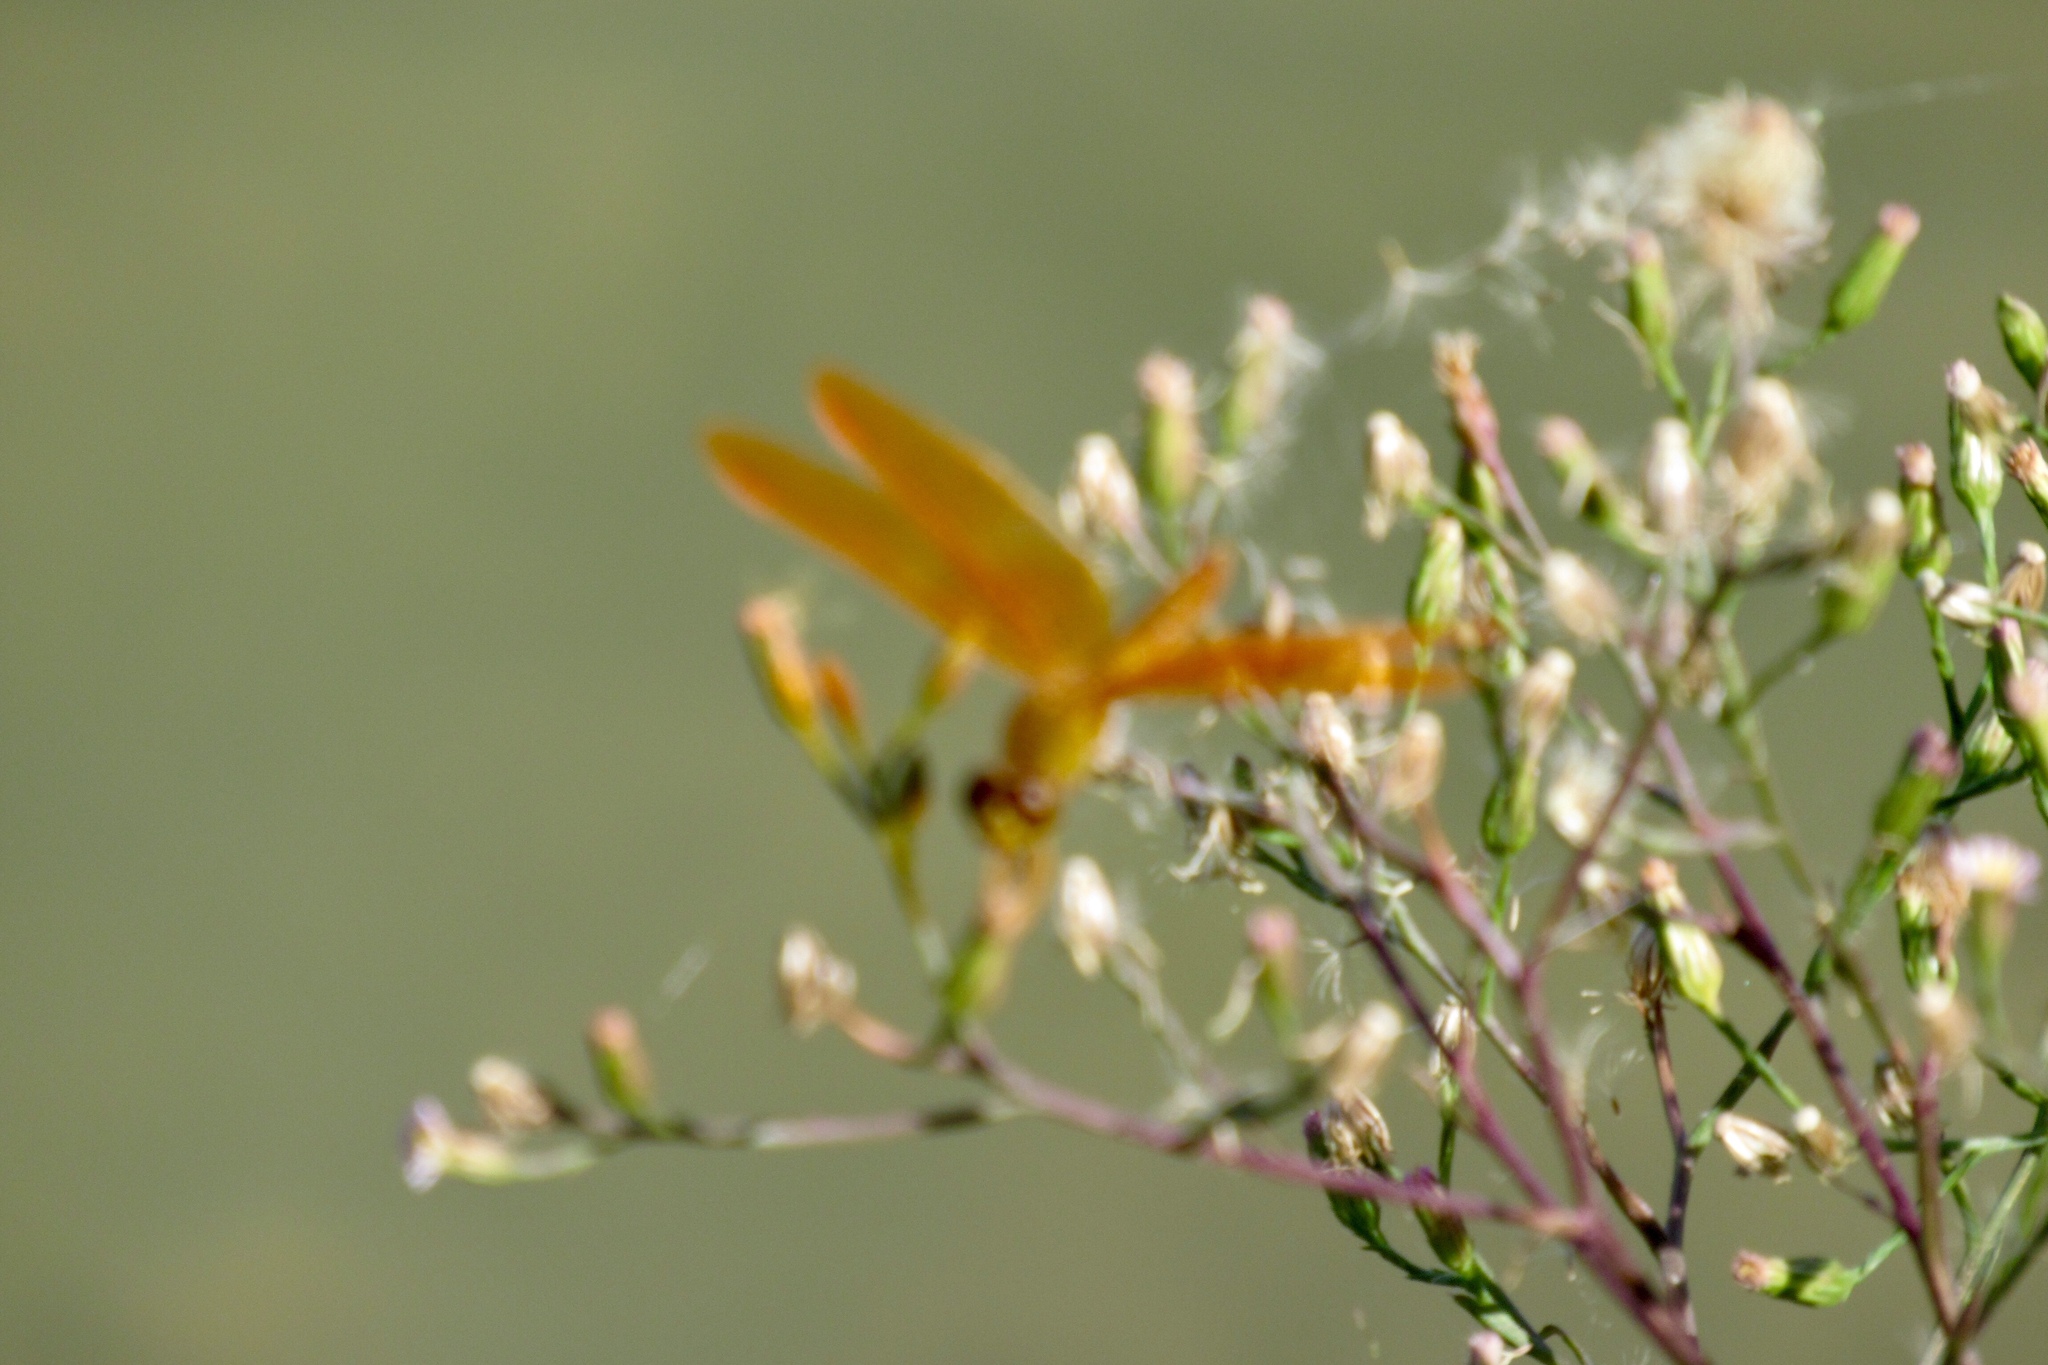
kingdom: Animalia
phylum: Arthropoda
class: Insecta
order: Odonata
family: Libellulidae
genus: Perithemis
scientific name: Perithemis intensa
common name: Mexican amberwing
